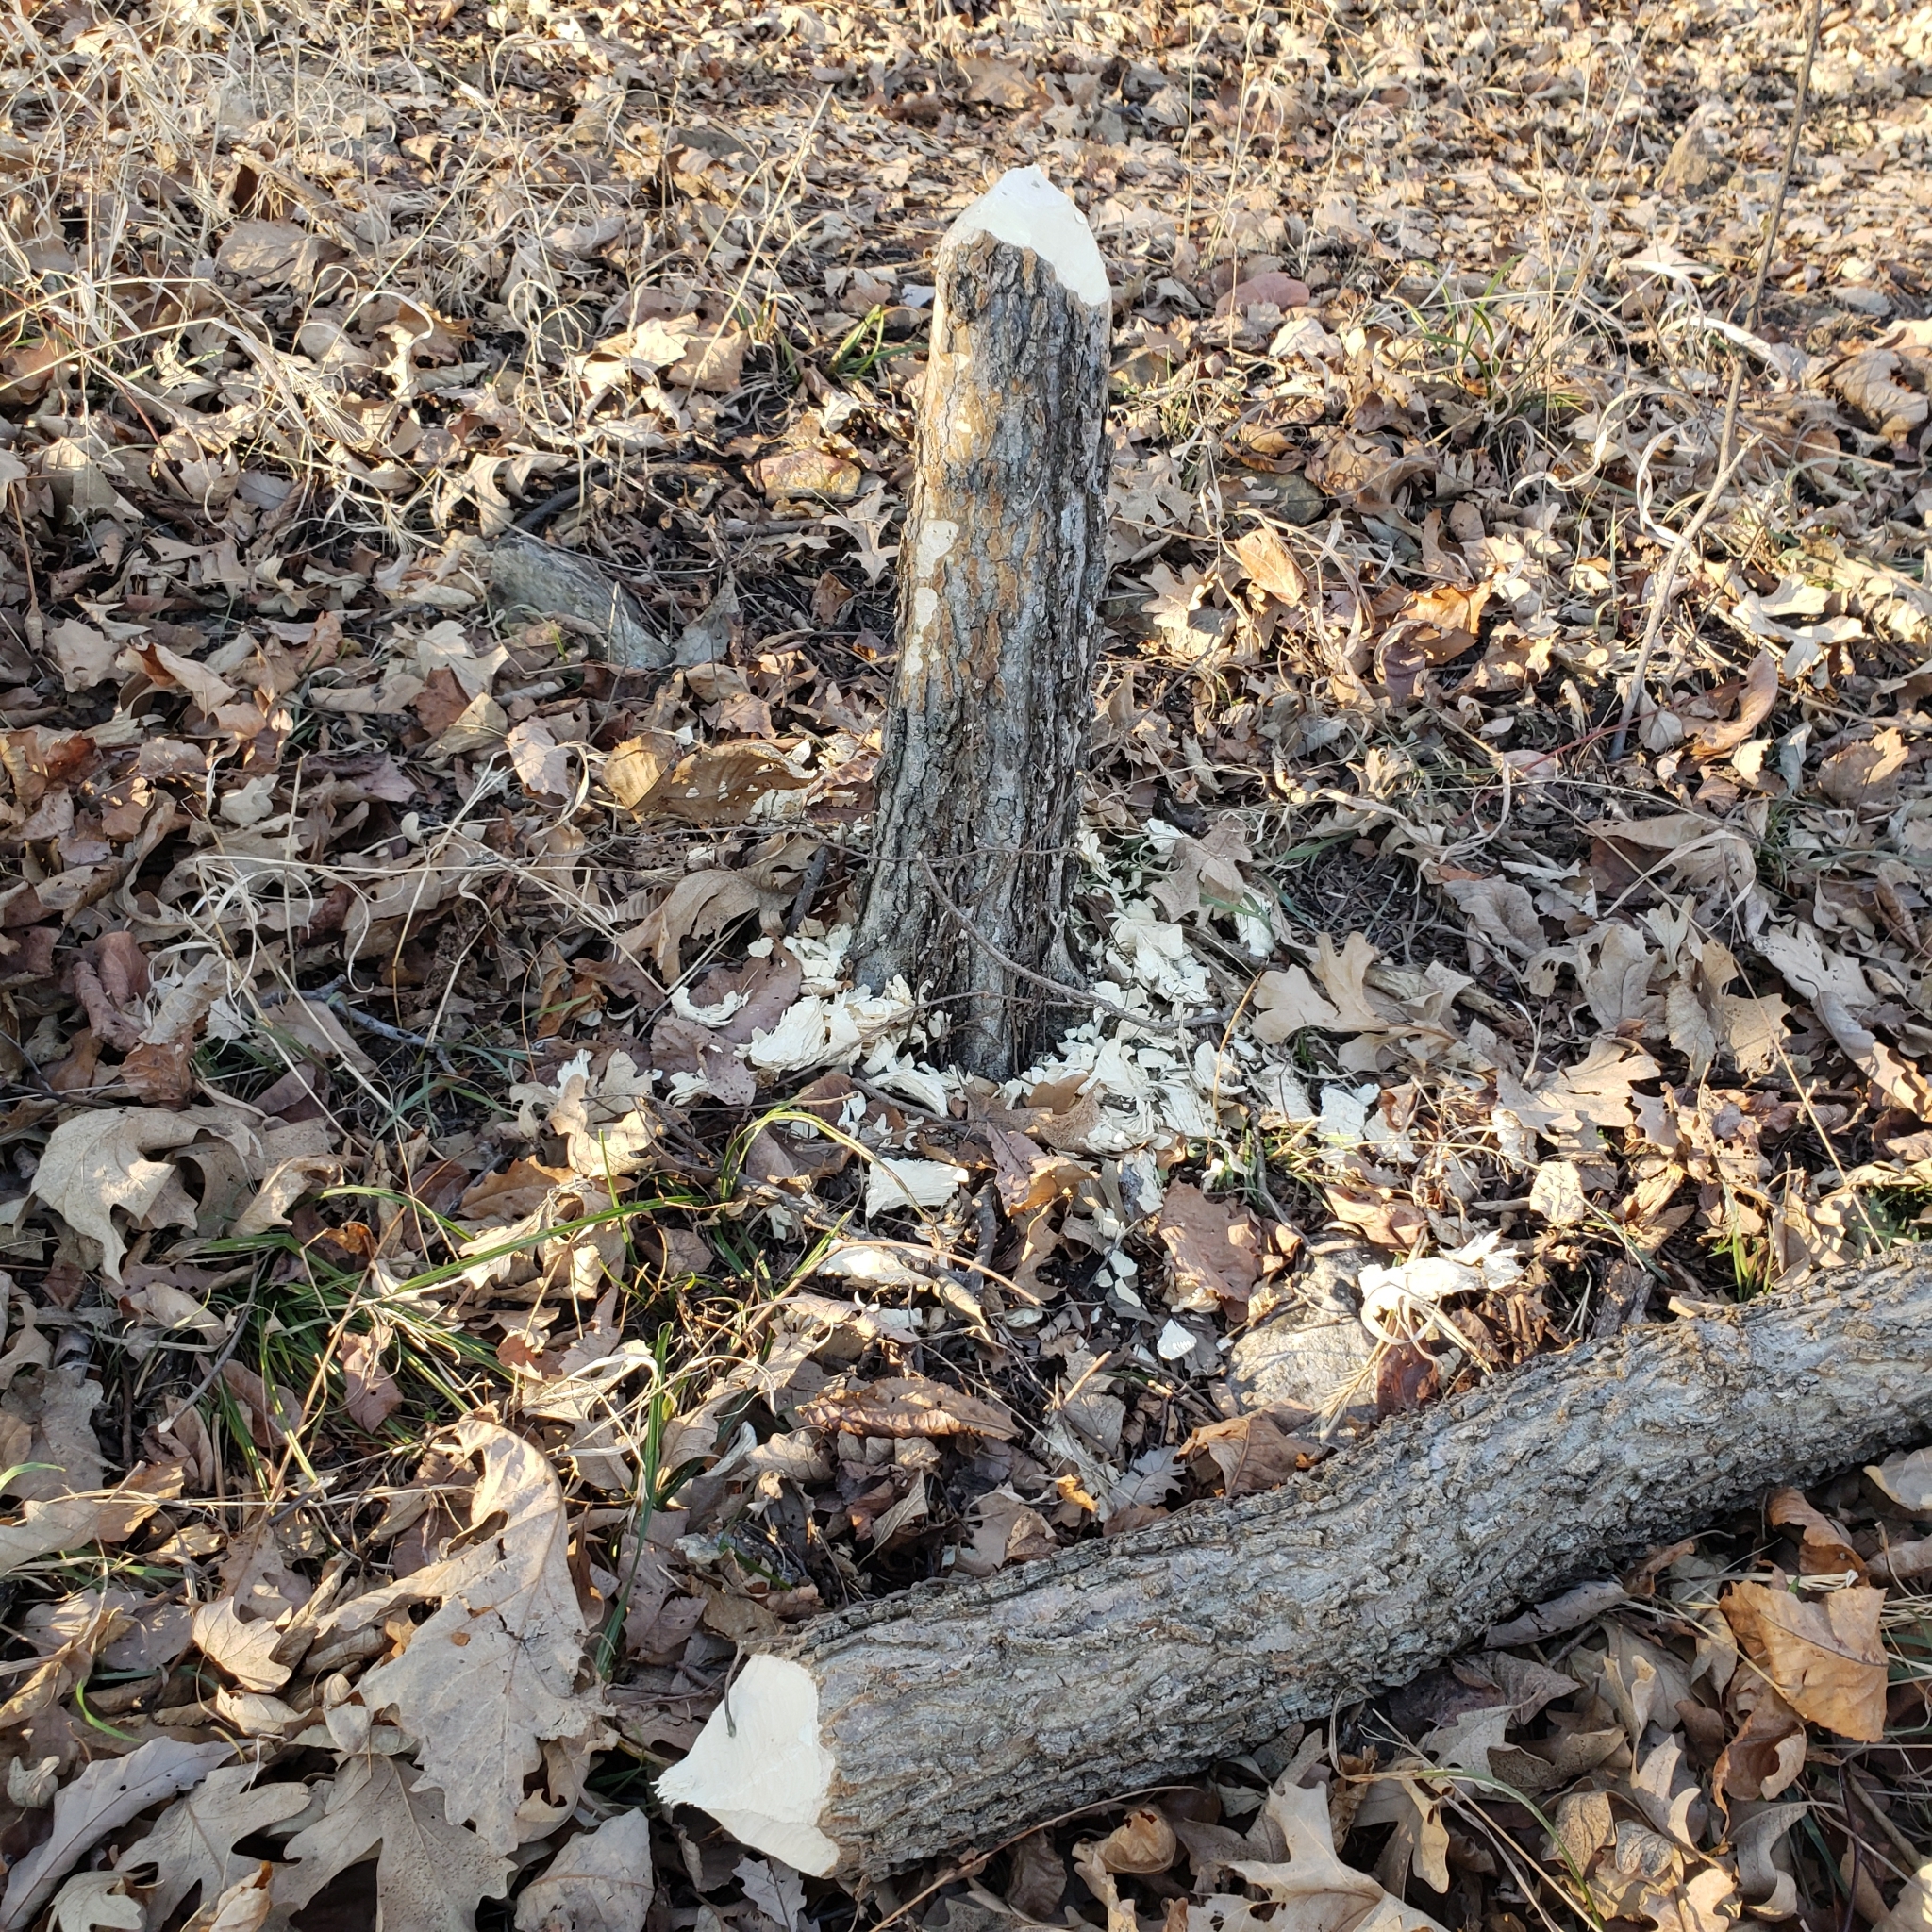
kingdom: Animalia
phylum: Chordata
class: Mammalia
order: Rodentia
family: Castoridae
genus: Castor
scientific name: Castor canadensis
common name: American beaver
